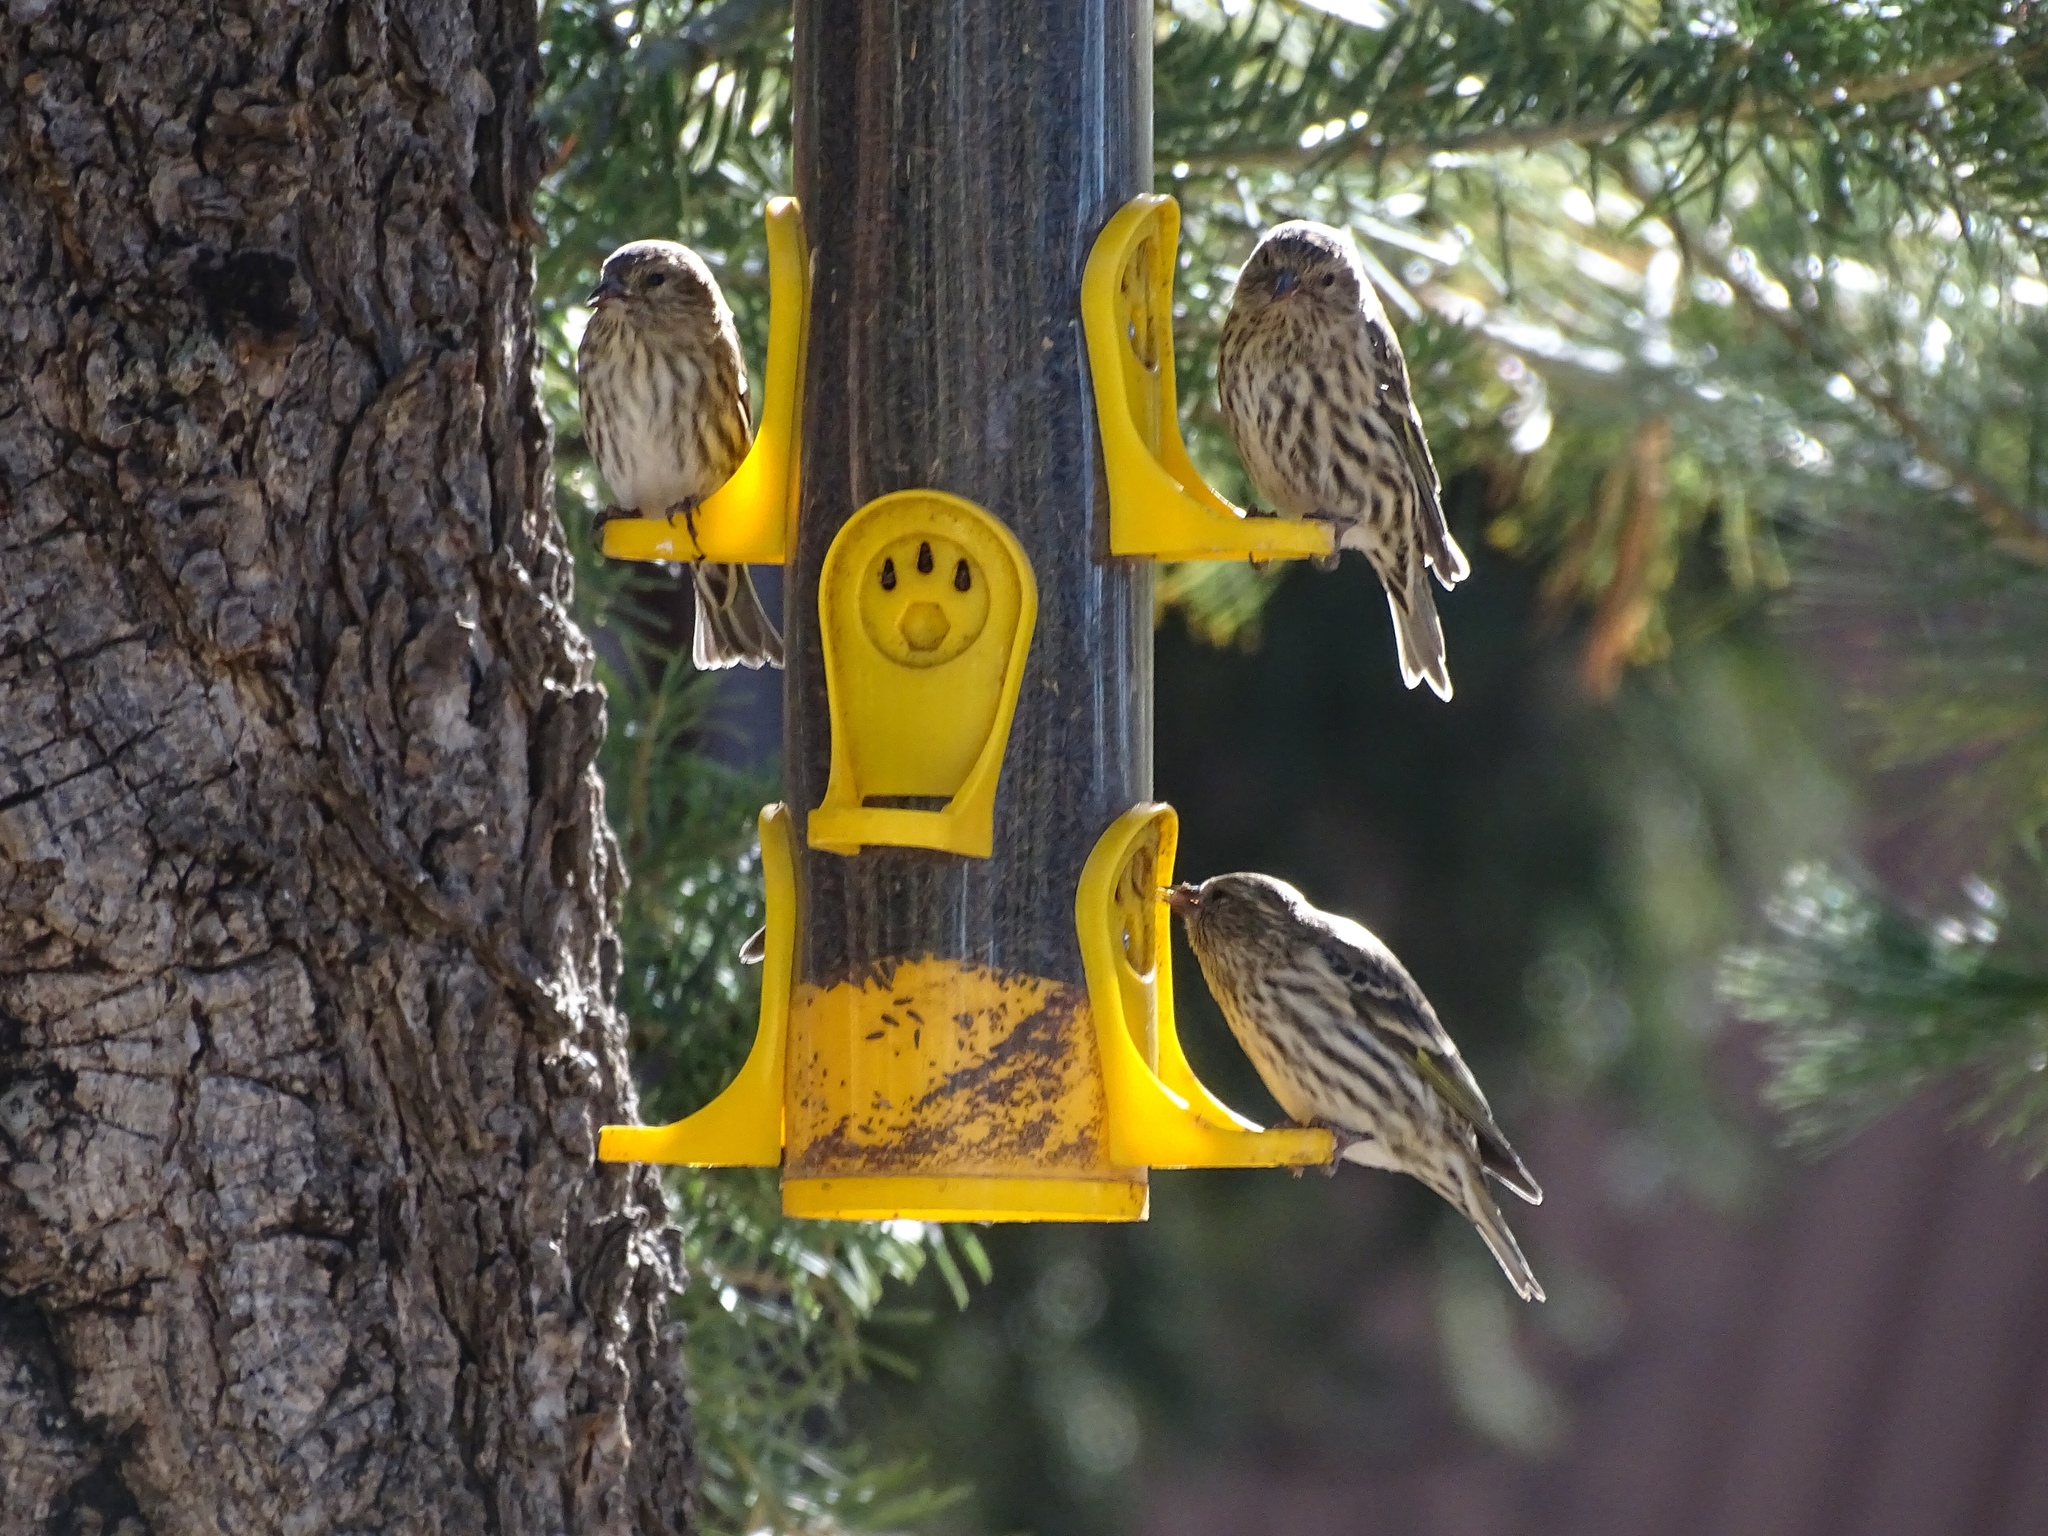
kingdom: Animalia
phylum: Chordata
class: Aves
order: Passeriformes
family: Fringillidae
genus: Spinus
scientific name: Spinus pinus
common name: Pine siskin
